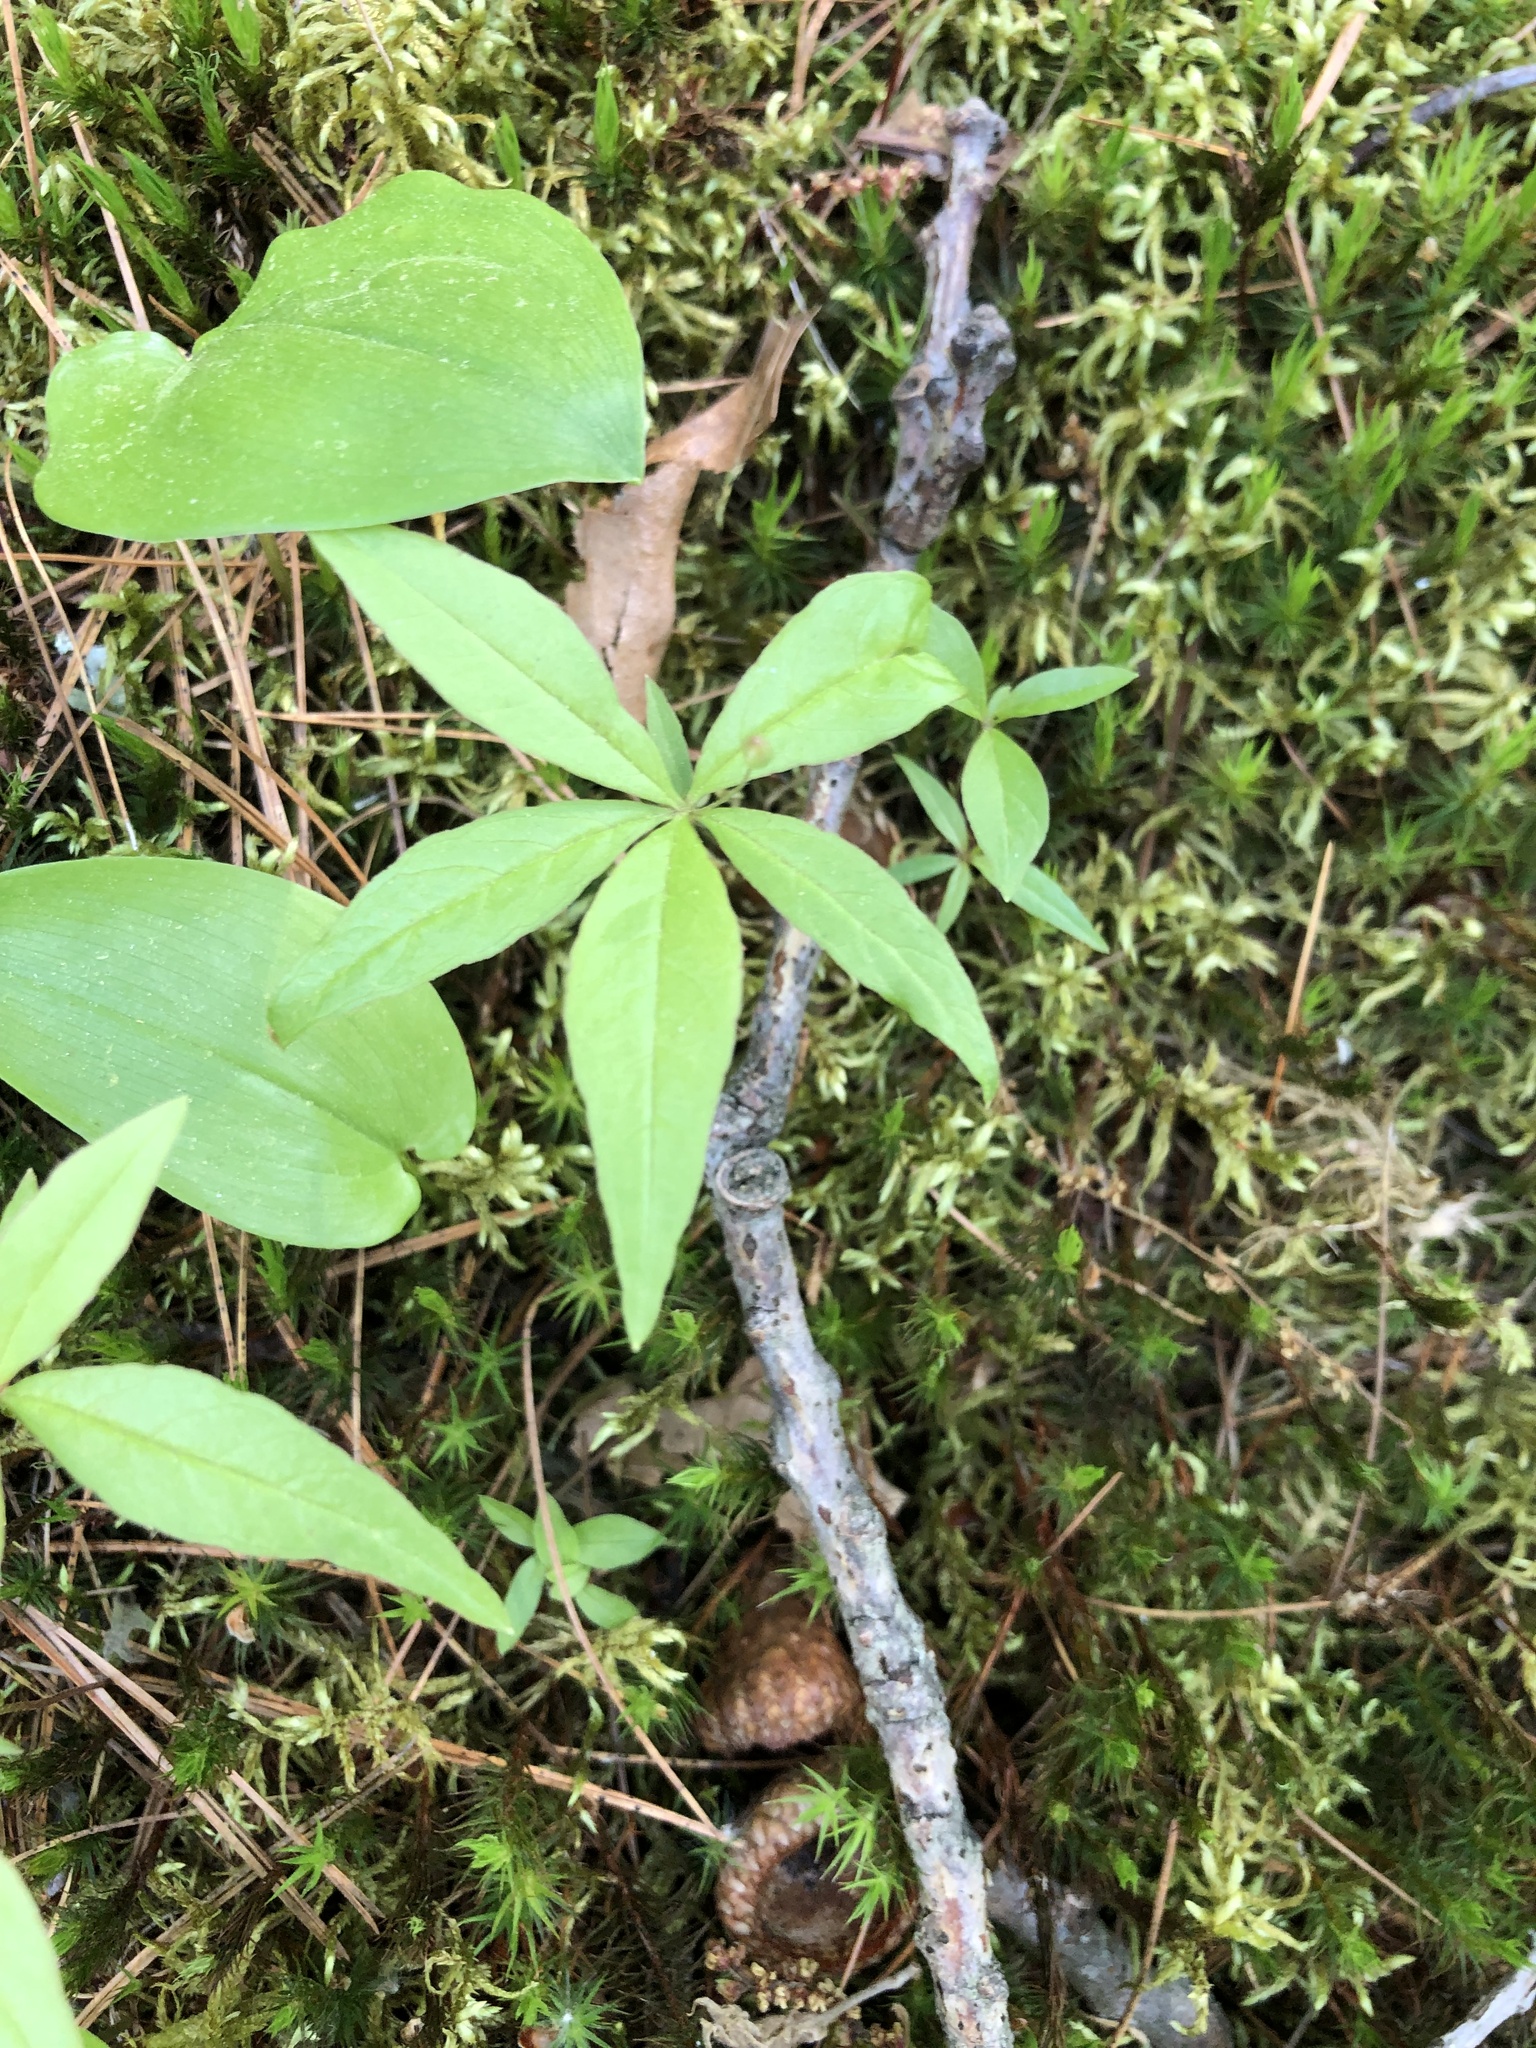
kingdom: Plantae
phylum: Tracheophyta
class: Magnoliopsida
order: Ericales
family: Primulaceae
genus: Lysimachia
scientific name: Lysimachia borealis
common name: American starflower
